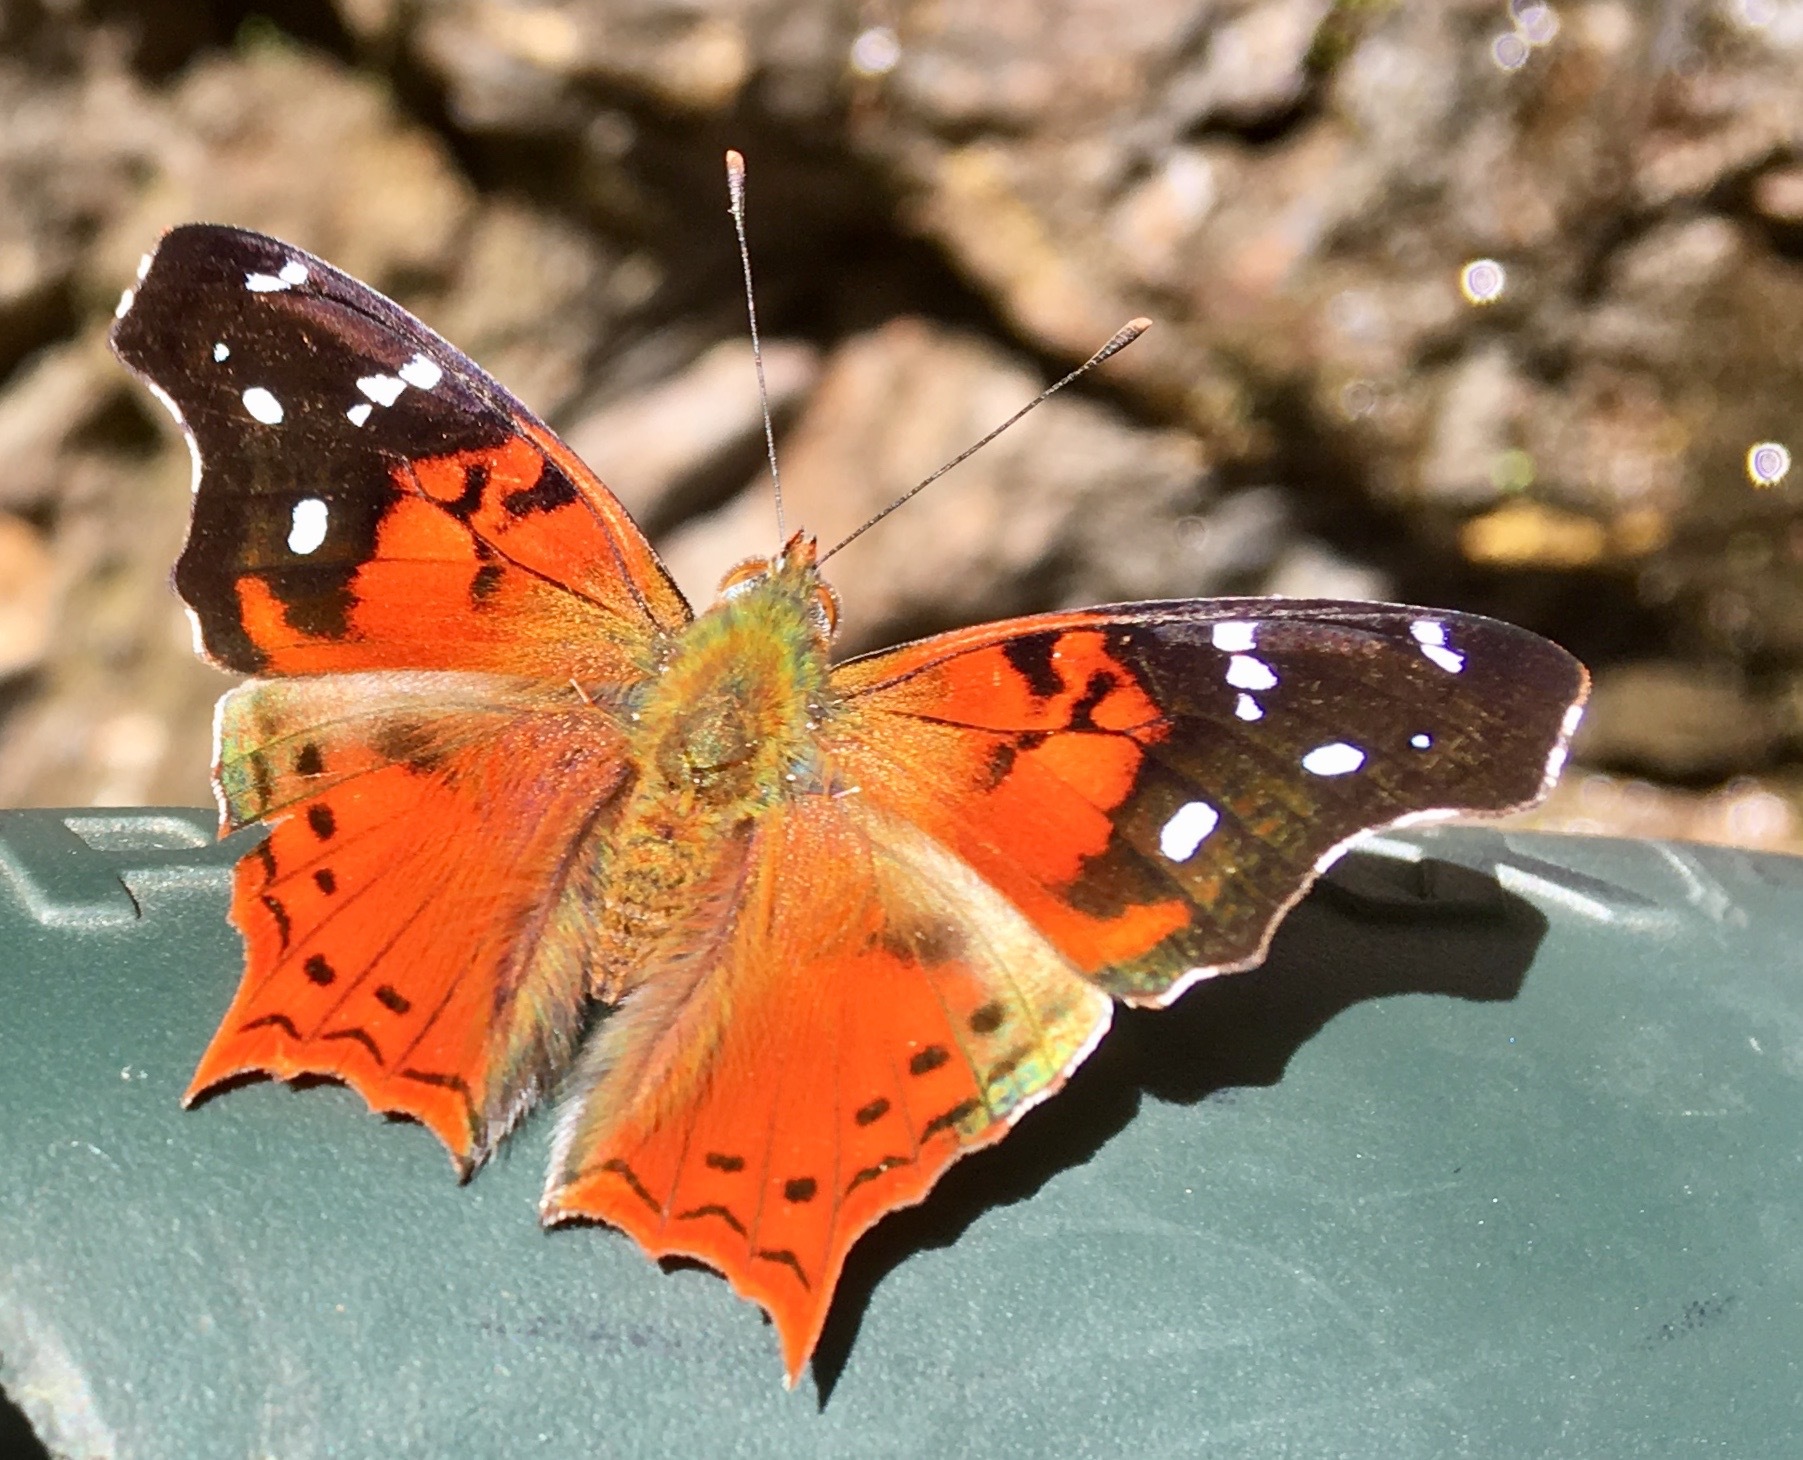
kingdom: Animalia
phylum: Arthropoda
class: Insecta
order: Lepidoptera
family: Nymphalidae
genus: Hypanartia
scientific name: Hypanartia kefersteini
